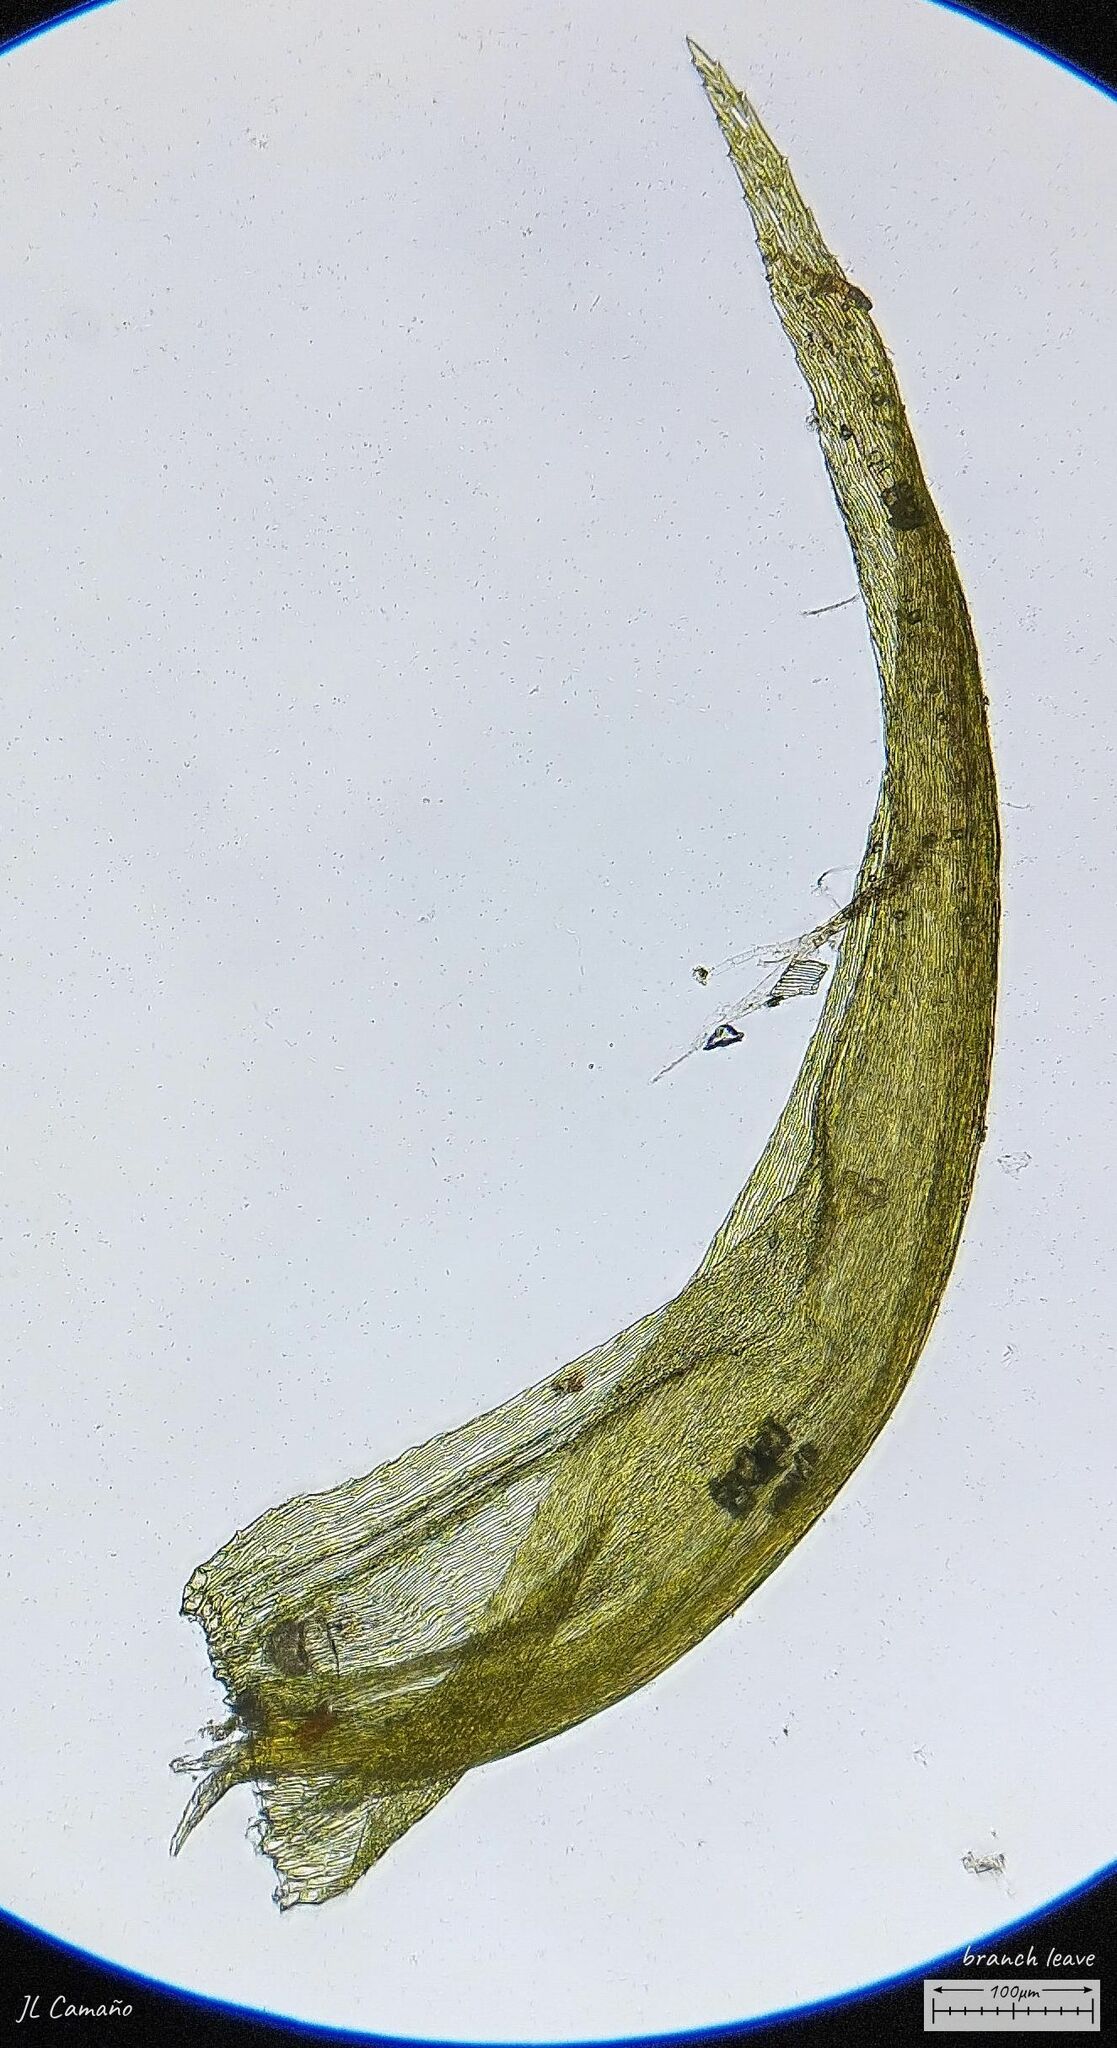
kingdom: Plantae
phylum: Bryophyta
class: Bryopsida
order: Hypnales
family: Amblystegiaceae
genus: Palustriella
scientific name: Palustriella commutata
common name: Curled hook-moss
